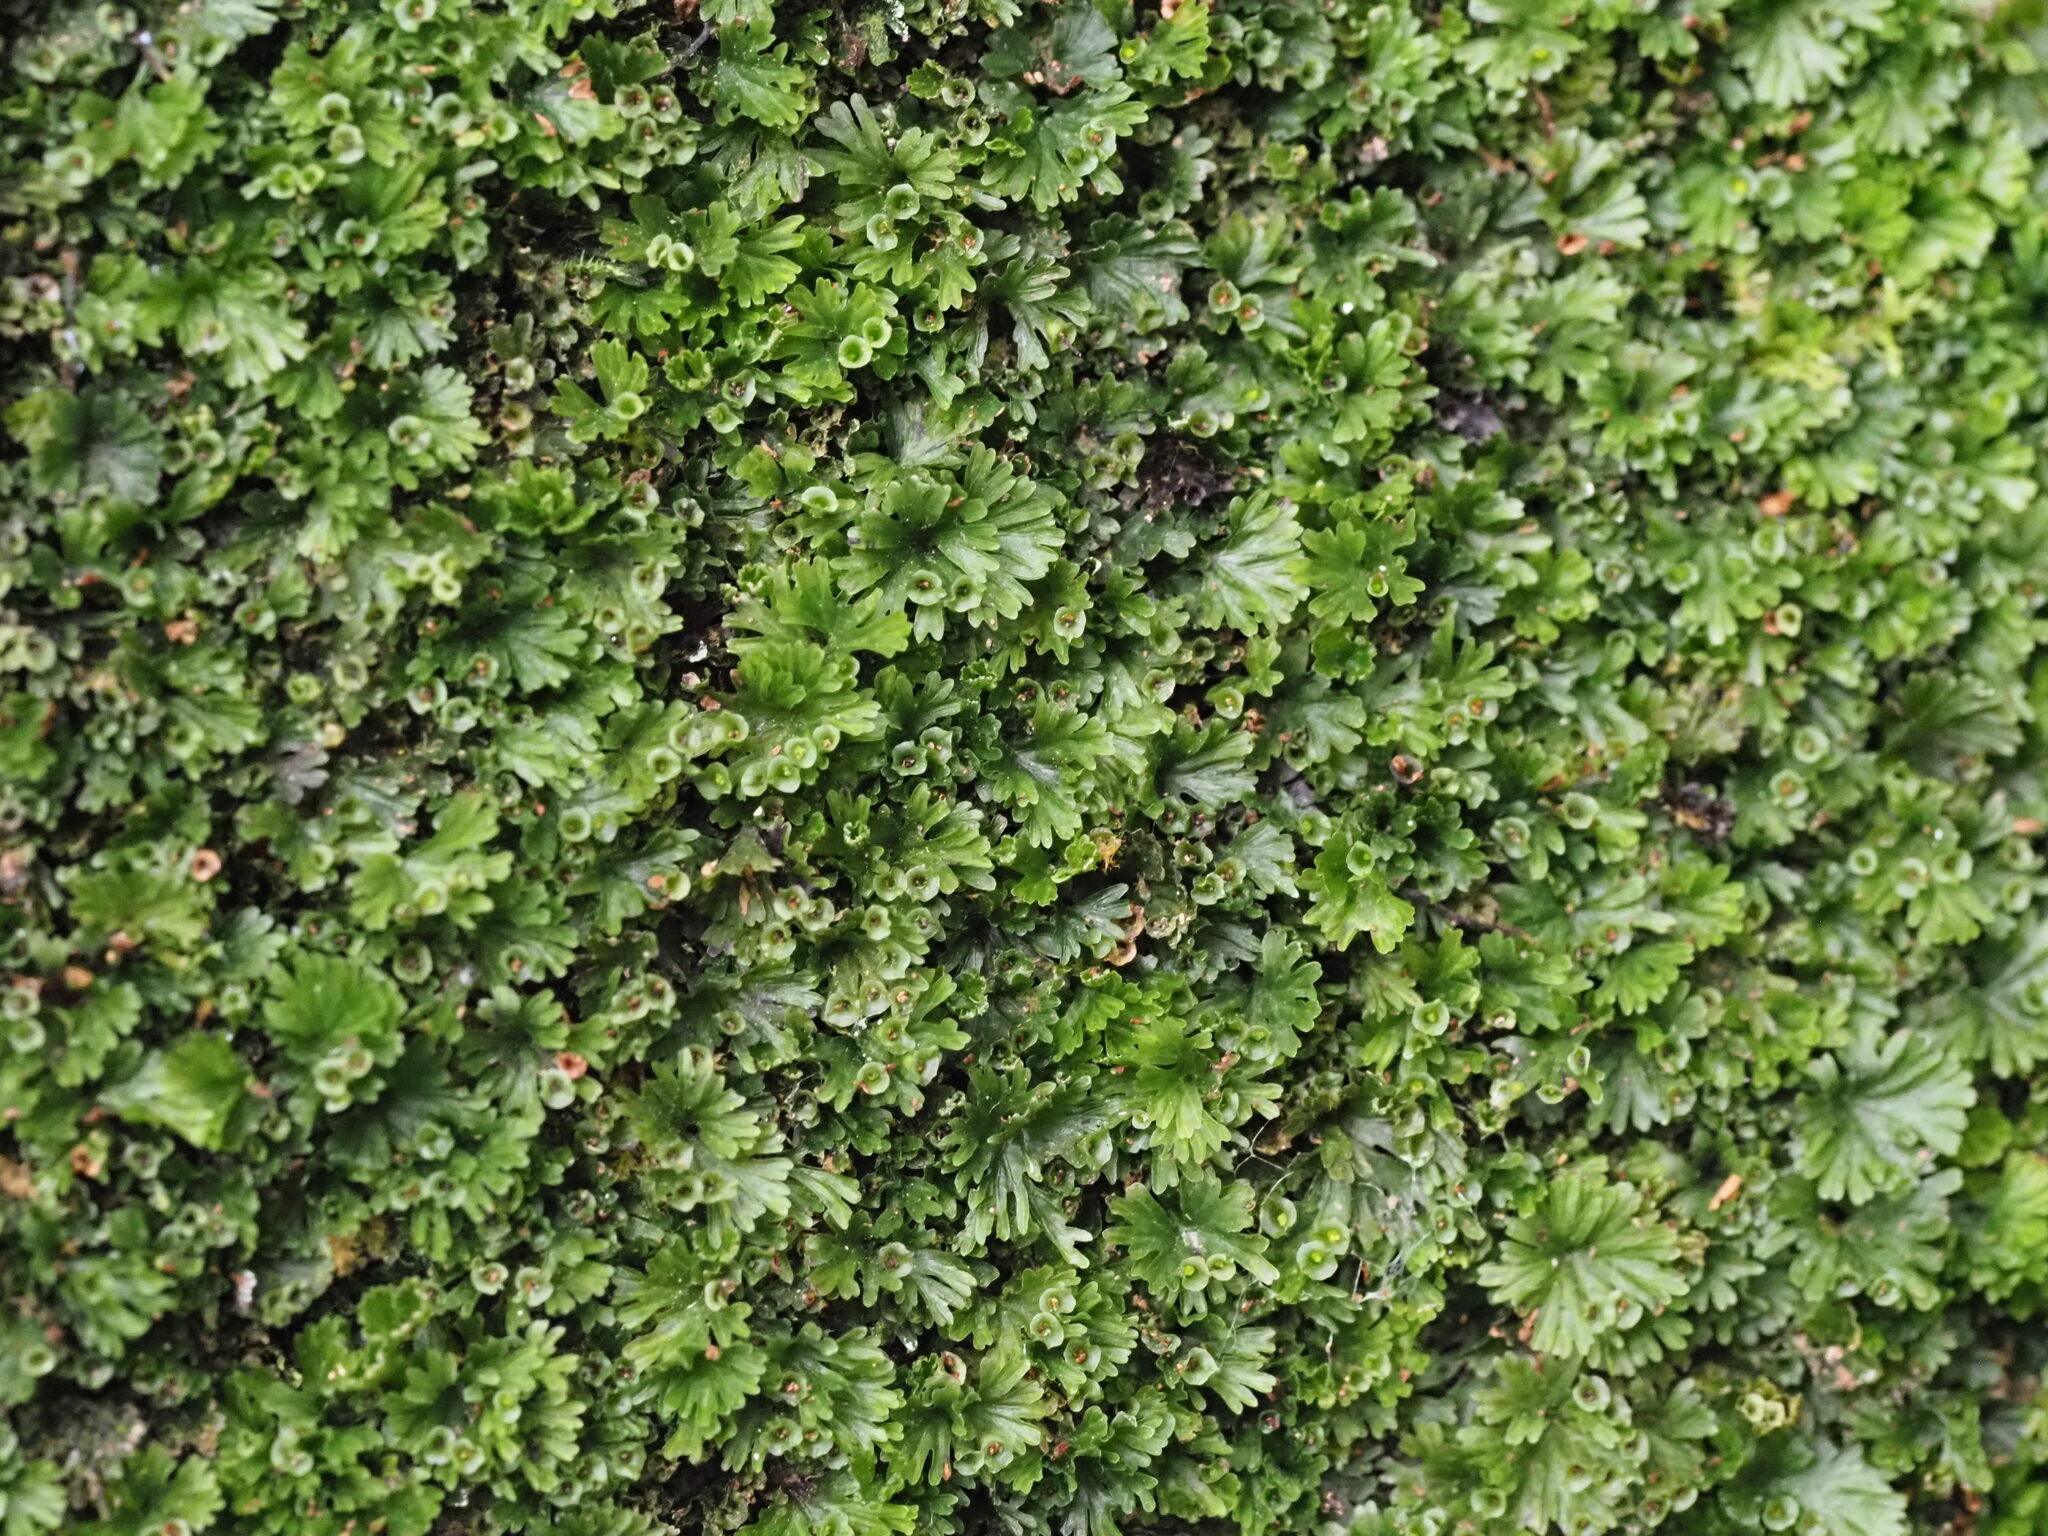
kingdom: Plantae
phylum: Tracheophyta
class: Polypodiopsida
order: Hymenophyllales
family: Hymenophyllaceae
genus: Crepidomanes
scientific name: Crepidomanes parvulum
